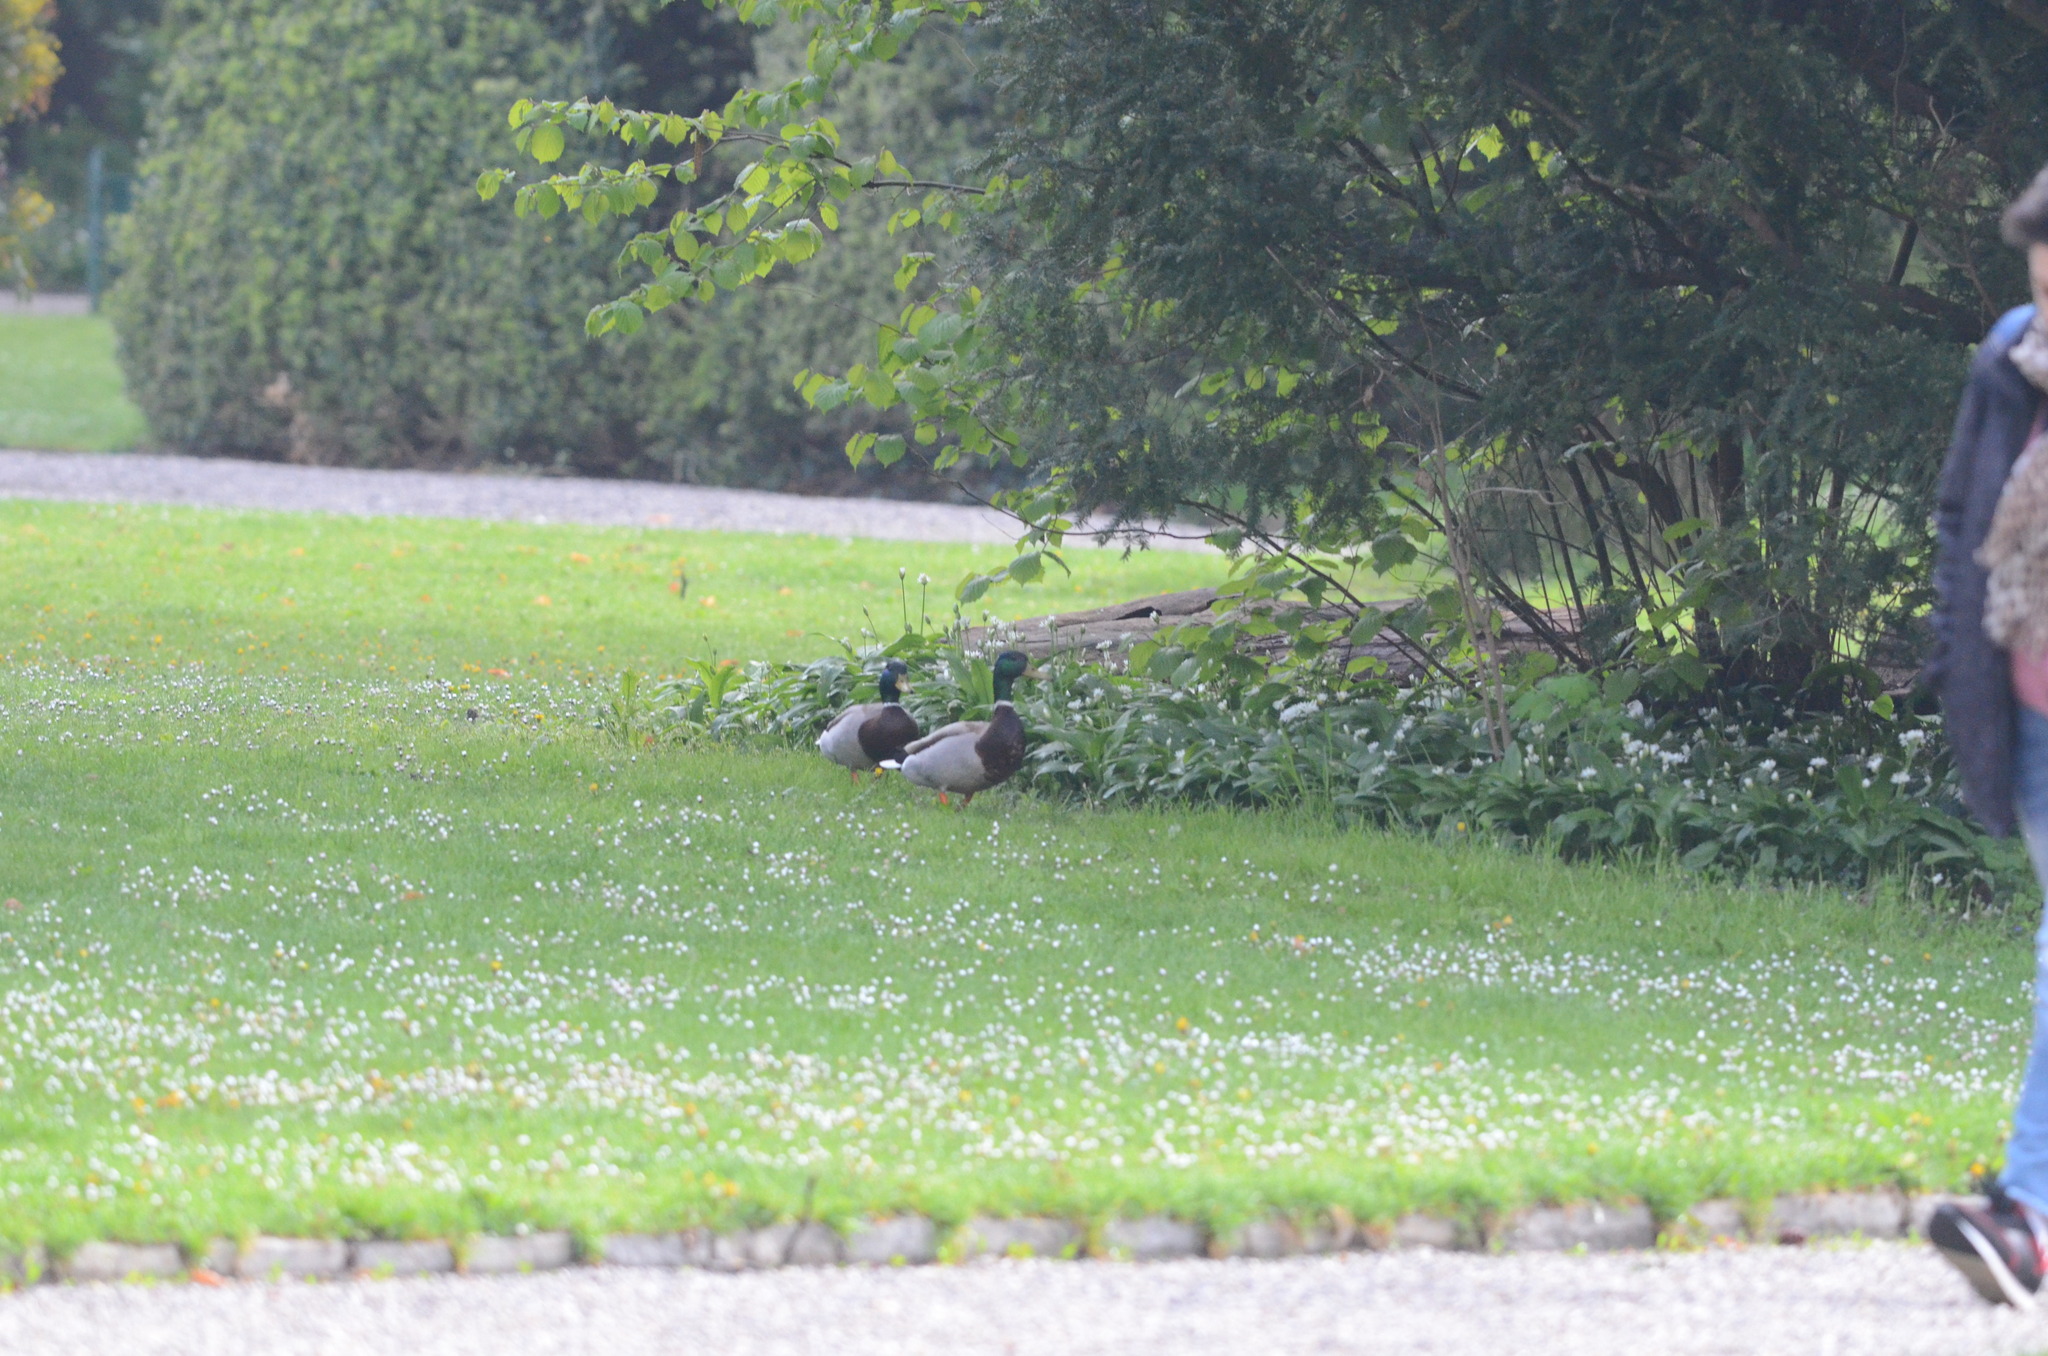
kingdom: Animalia
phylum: Chordata
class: Aves
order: Anseriformes
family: Anatidae
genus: Anas
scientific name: Anas platyrhynchos
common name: Mallard
